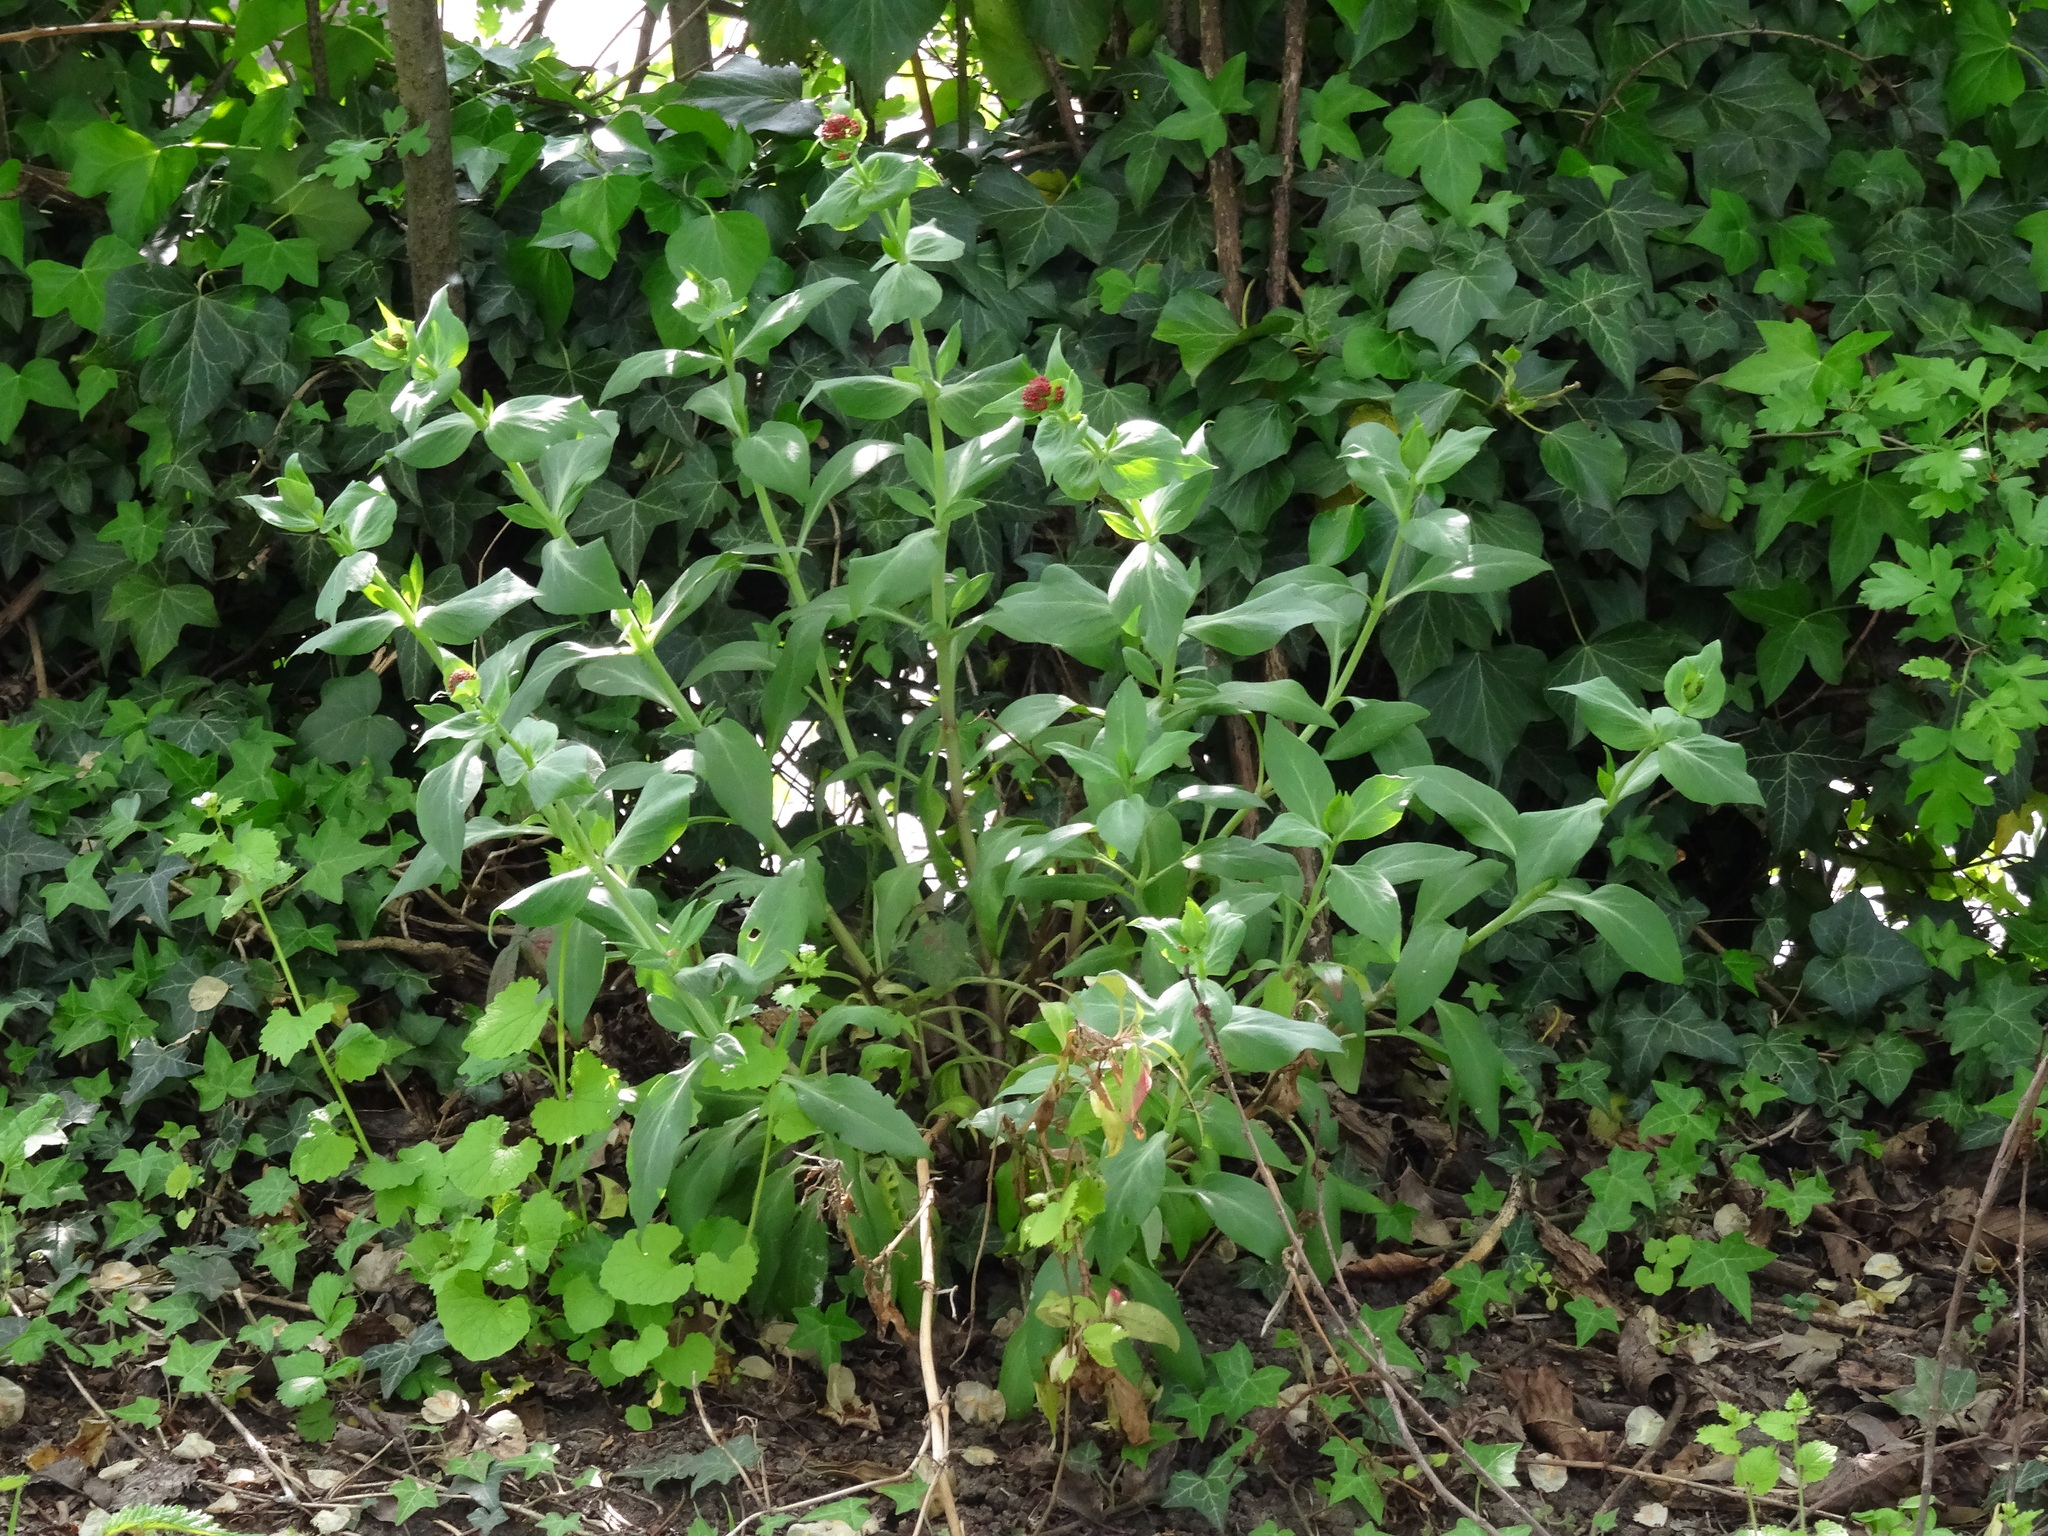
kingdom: Plantae
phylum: Tracheophyta
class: Magnoliopsida
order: Dipsacales
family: Caprifoliaceae
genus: Centranthus
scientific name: Centranthus ruber
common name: Red valerian
